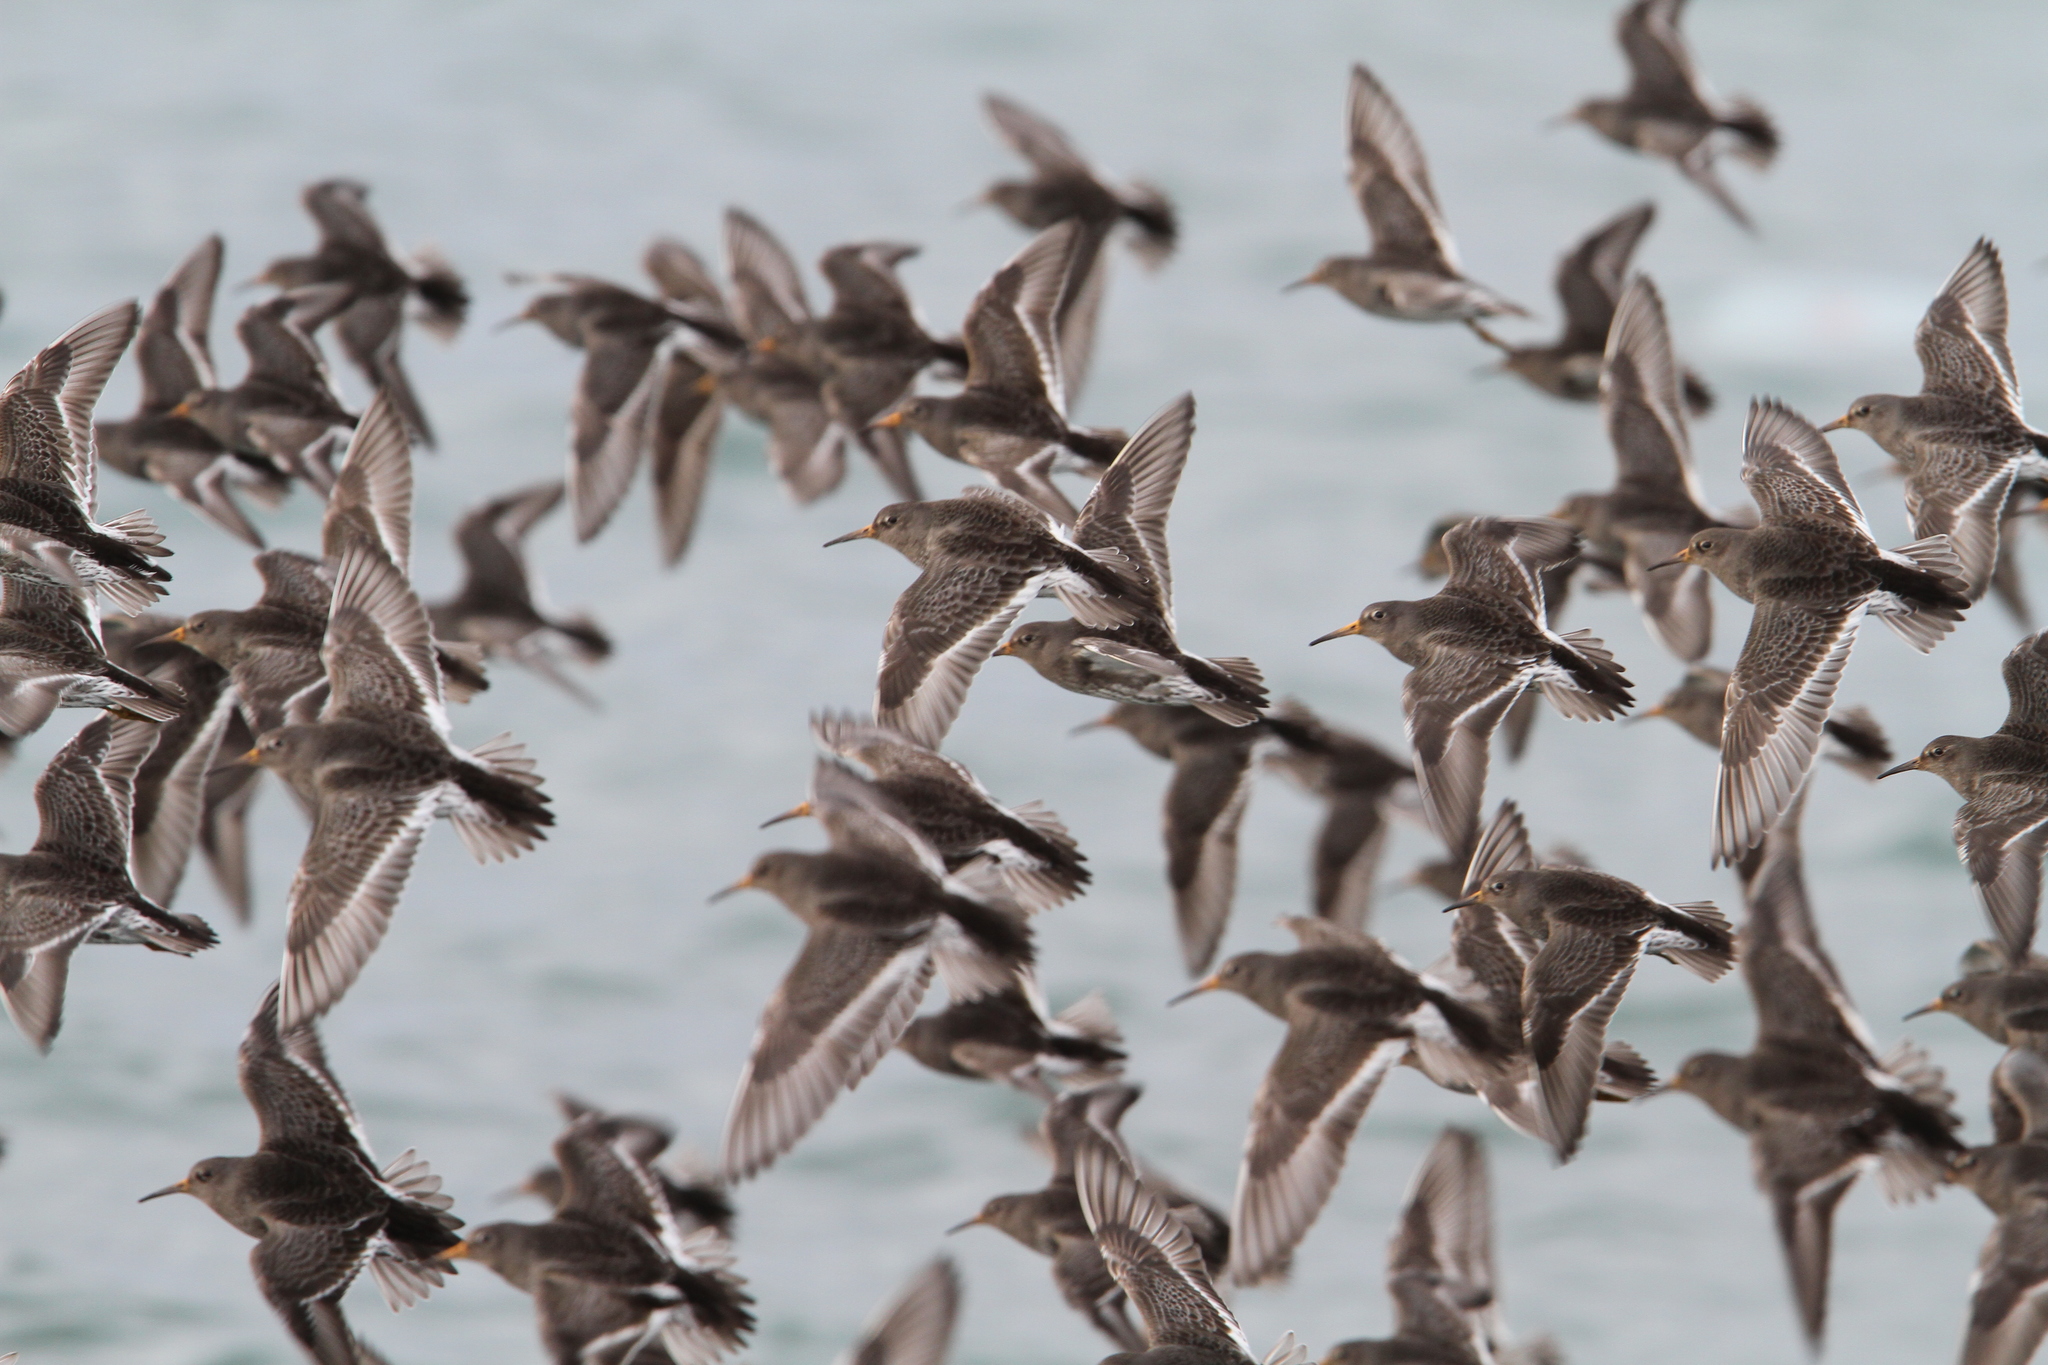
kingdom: Animalia
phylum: Chordata
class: Aves
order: Charadriiformes
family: Scolopacidae
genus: Calidris
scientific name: Calidris maritima
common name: Purple sandpiper
